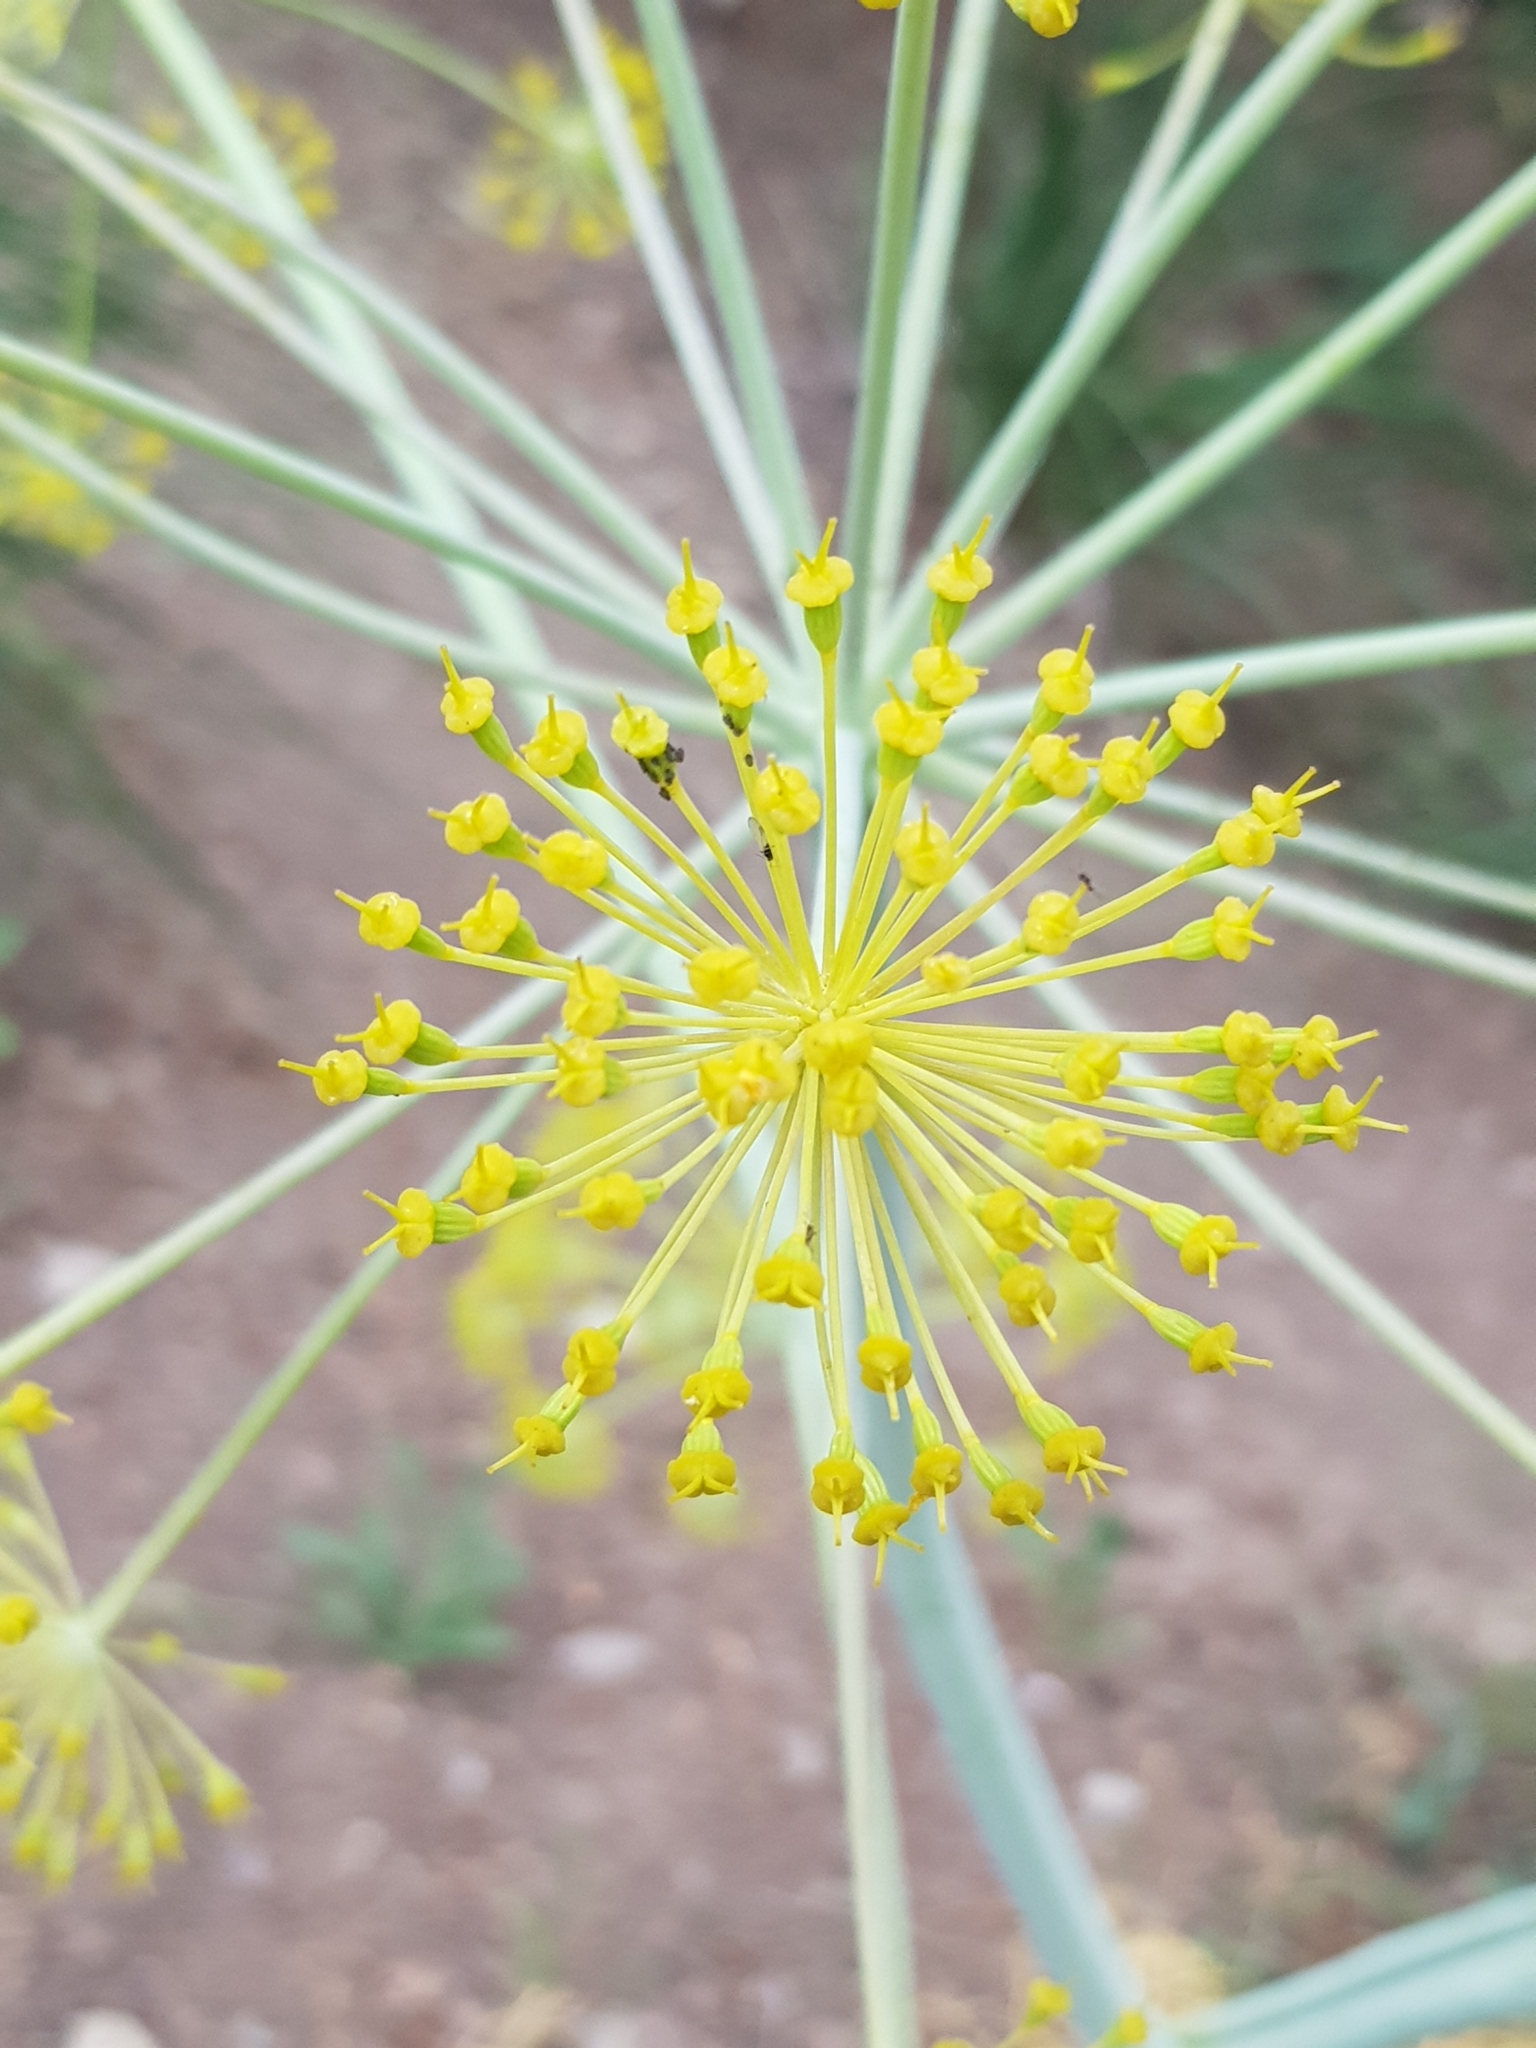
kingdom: Plantae
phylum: Tracheophyta
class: Magnoliopsida
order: Apiales
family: Apiaceae
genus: Thapsia
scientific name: Thapsia garganica
